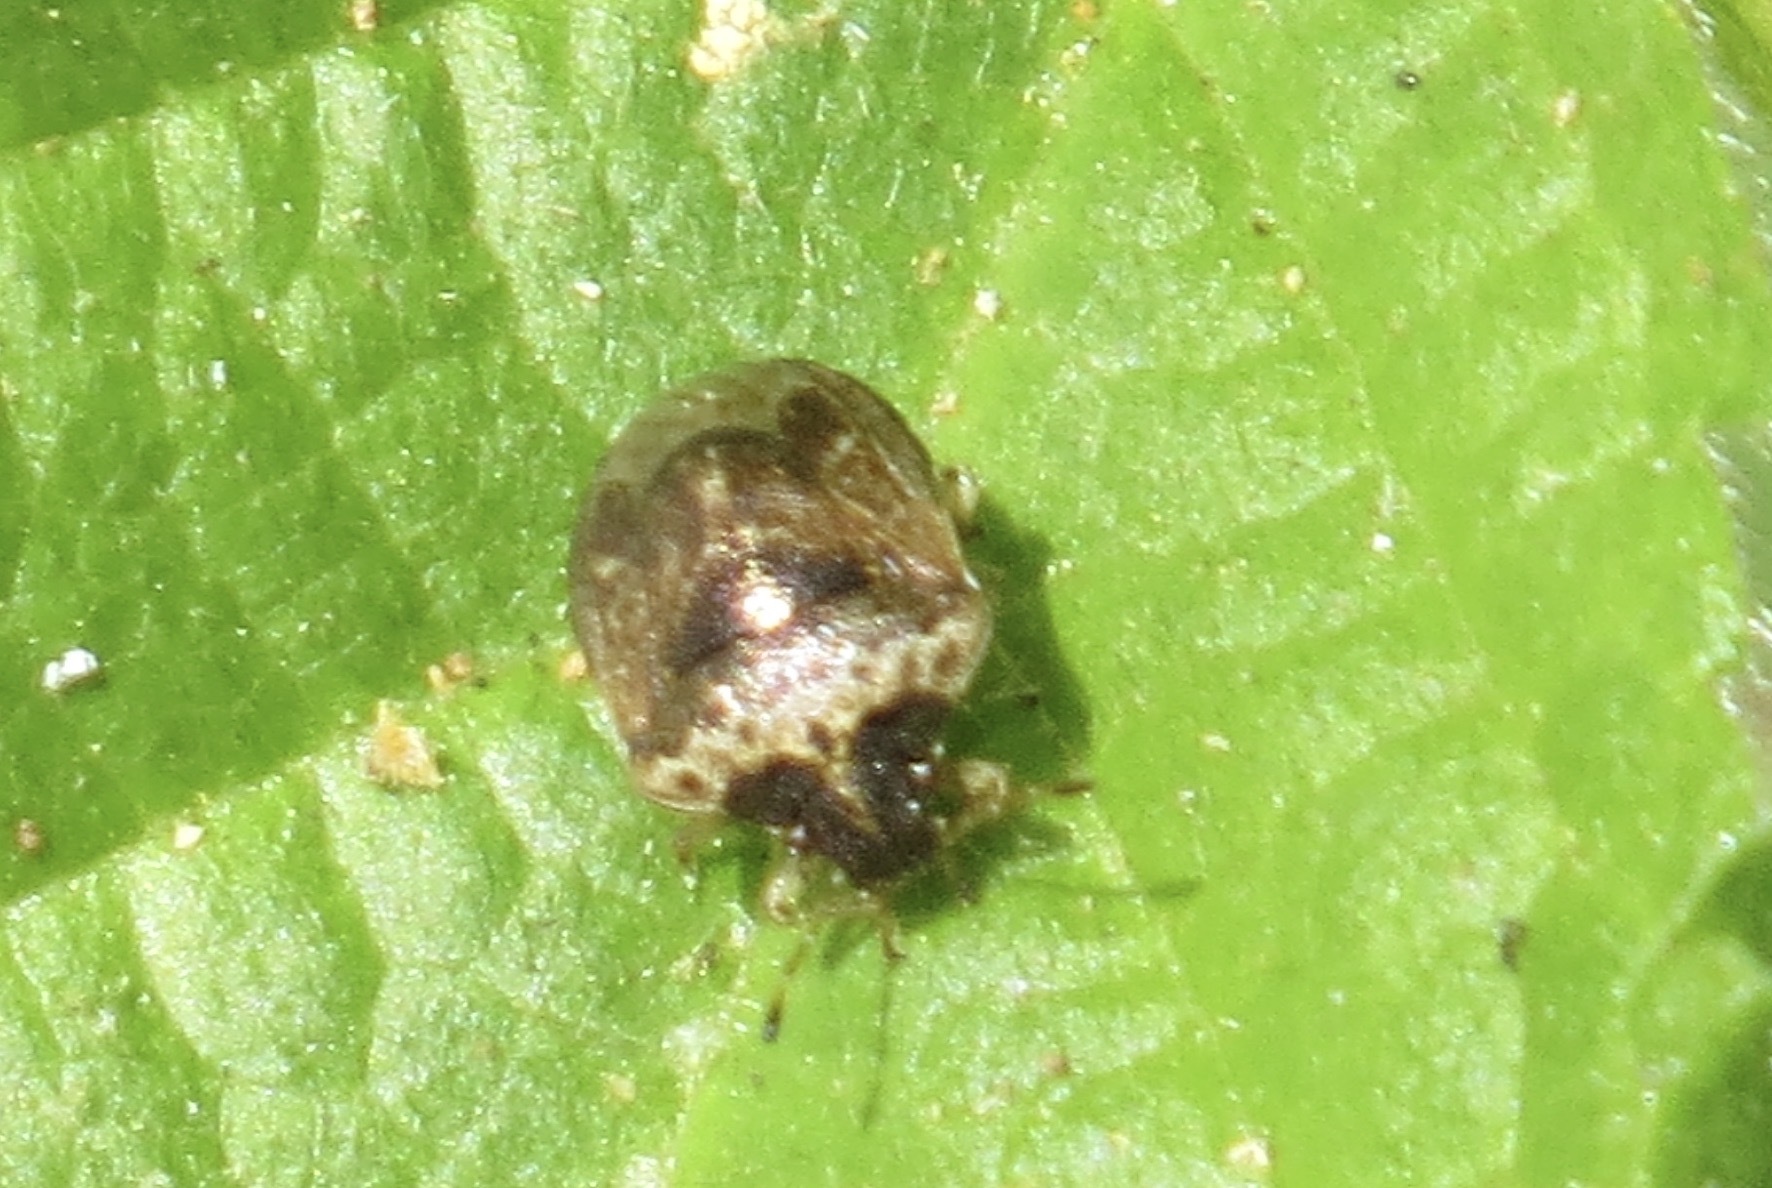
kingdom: Animalia
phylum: Arthropoda
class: Insecta
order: Hemiptera
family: Pentatomidae
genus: Cosmopepla
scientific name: Cosmopepla intergressus
